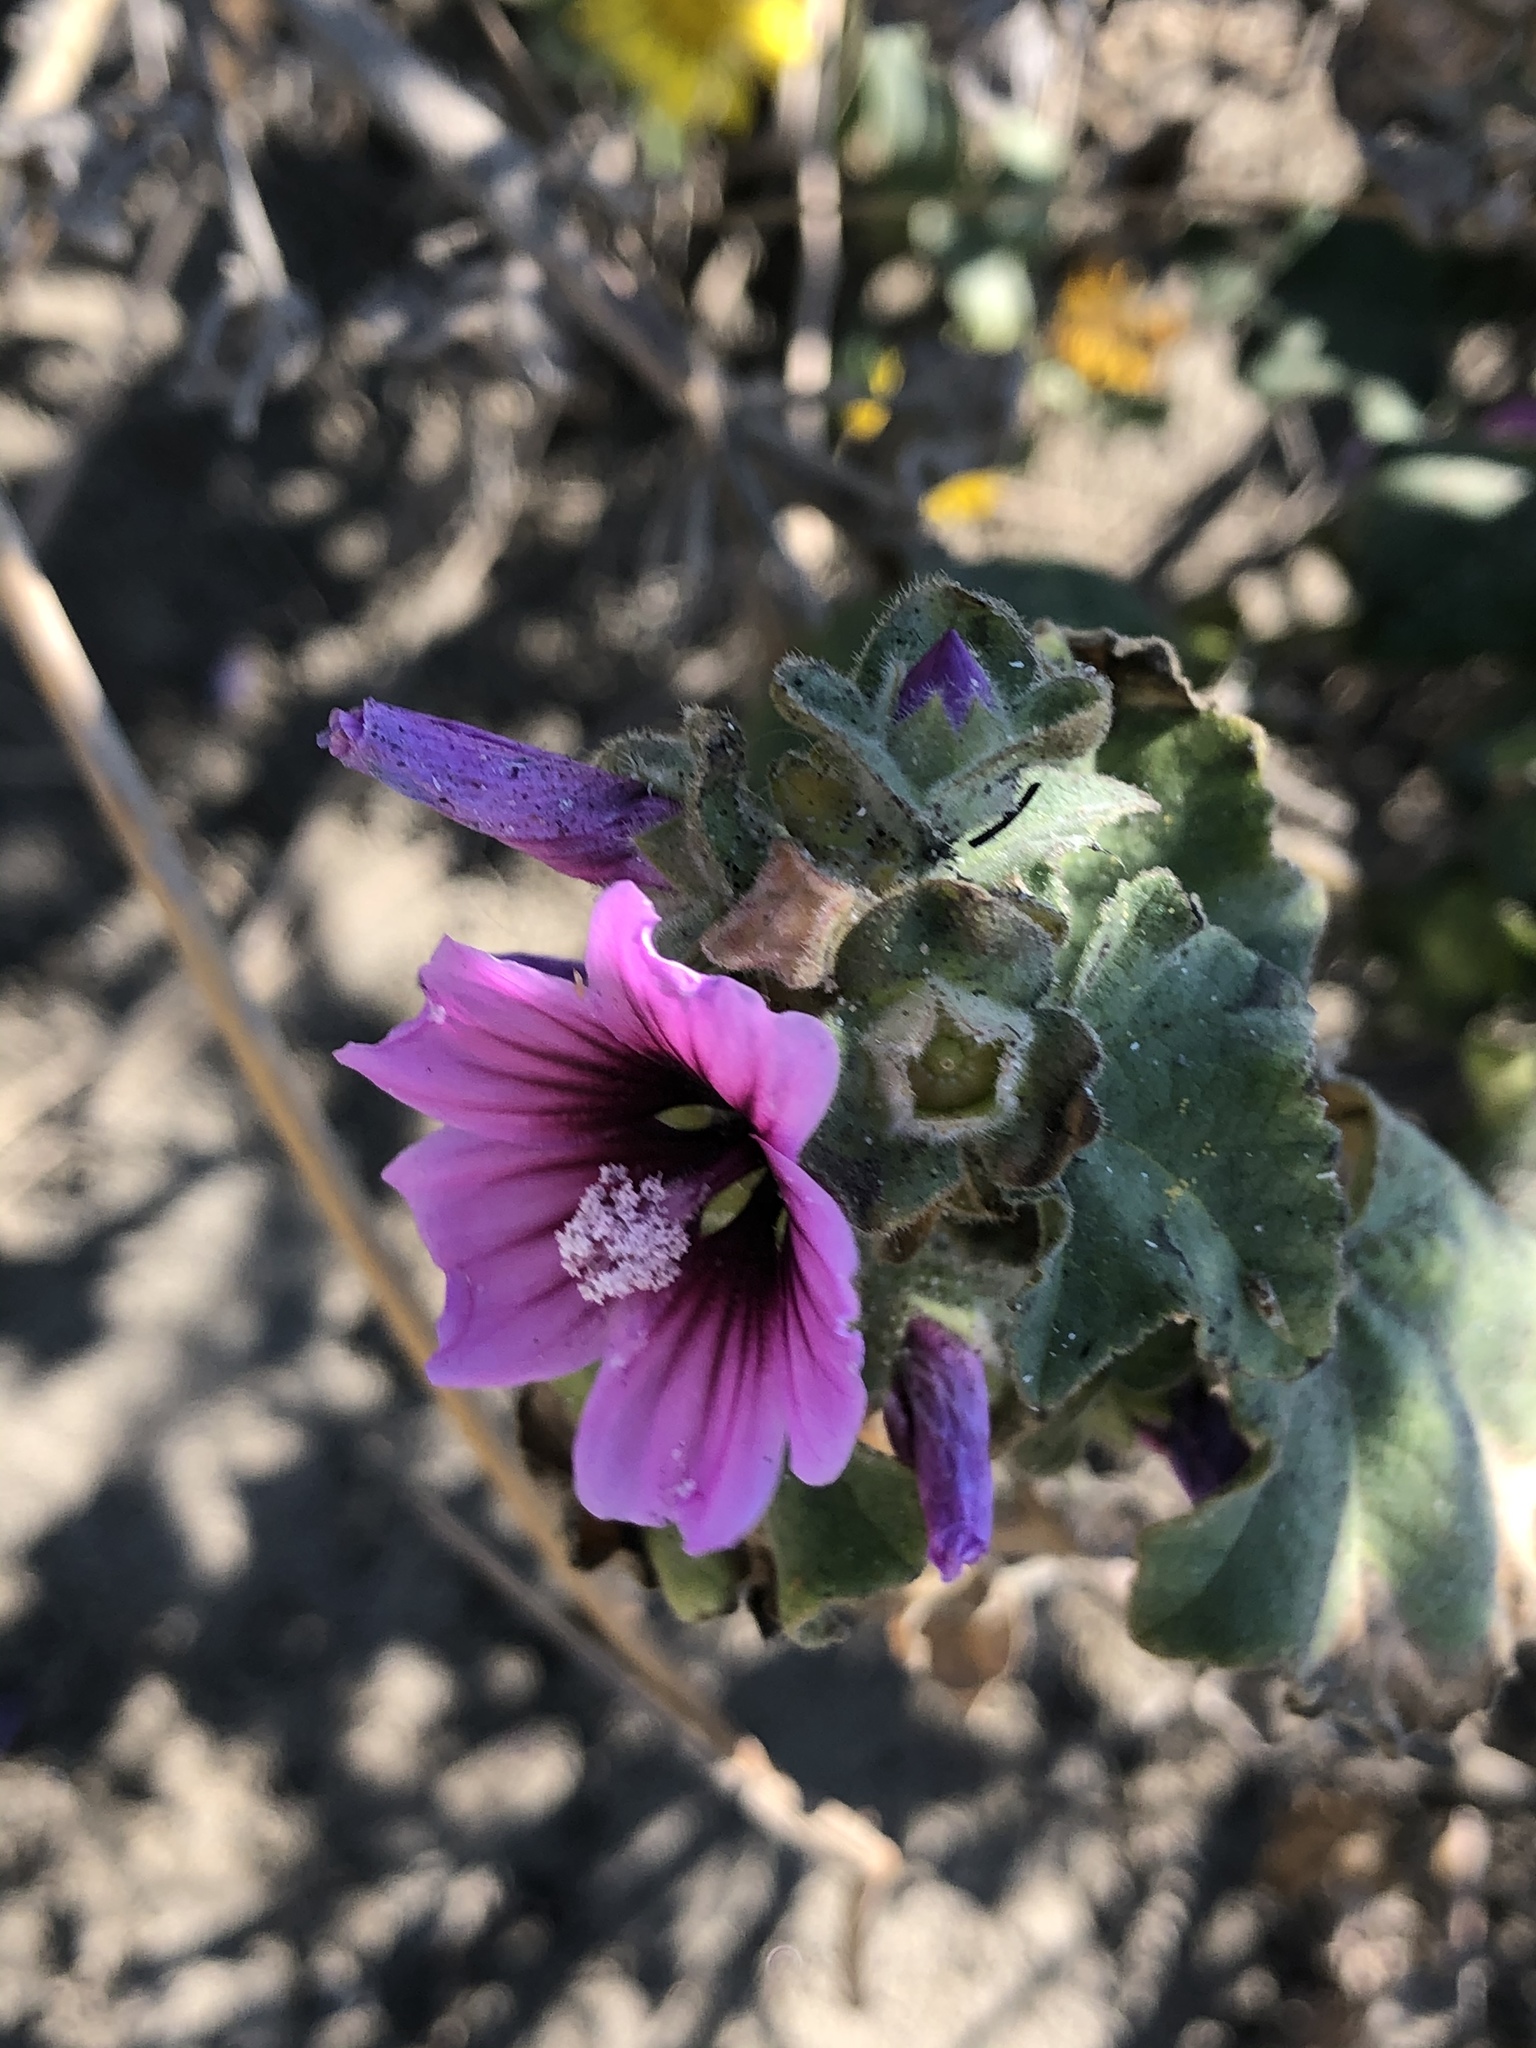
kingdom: Plantae
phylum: Tracheophyta
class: Magnoliopsida
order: Malvales
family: Malvaceae
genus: Malva
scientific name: Malva arborea
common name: Tree mallow
